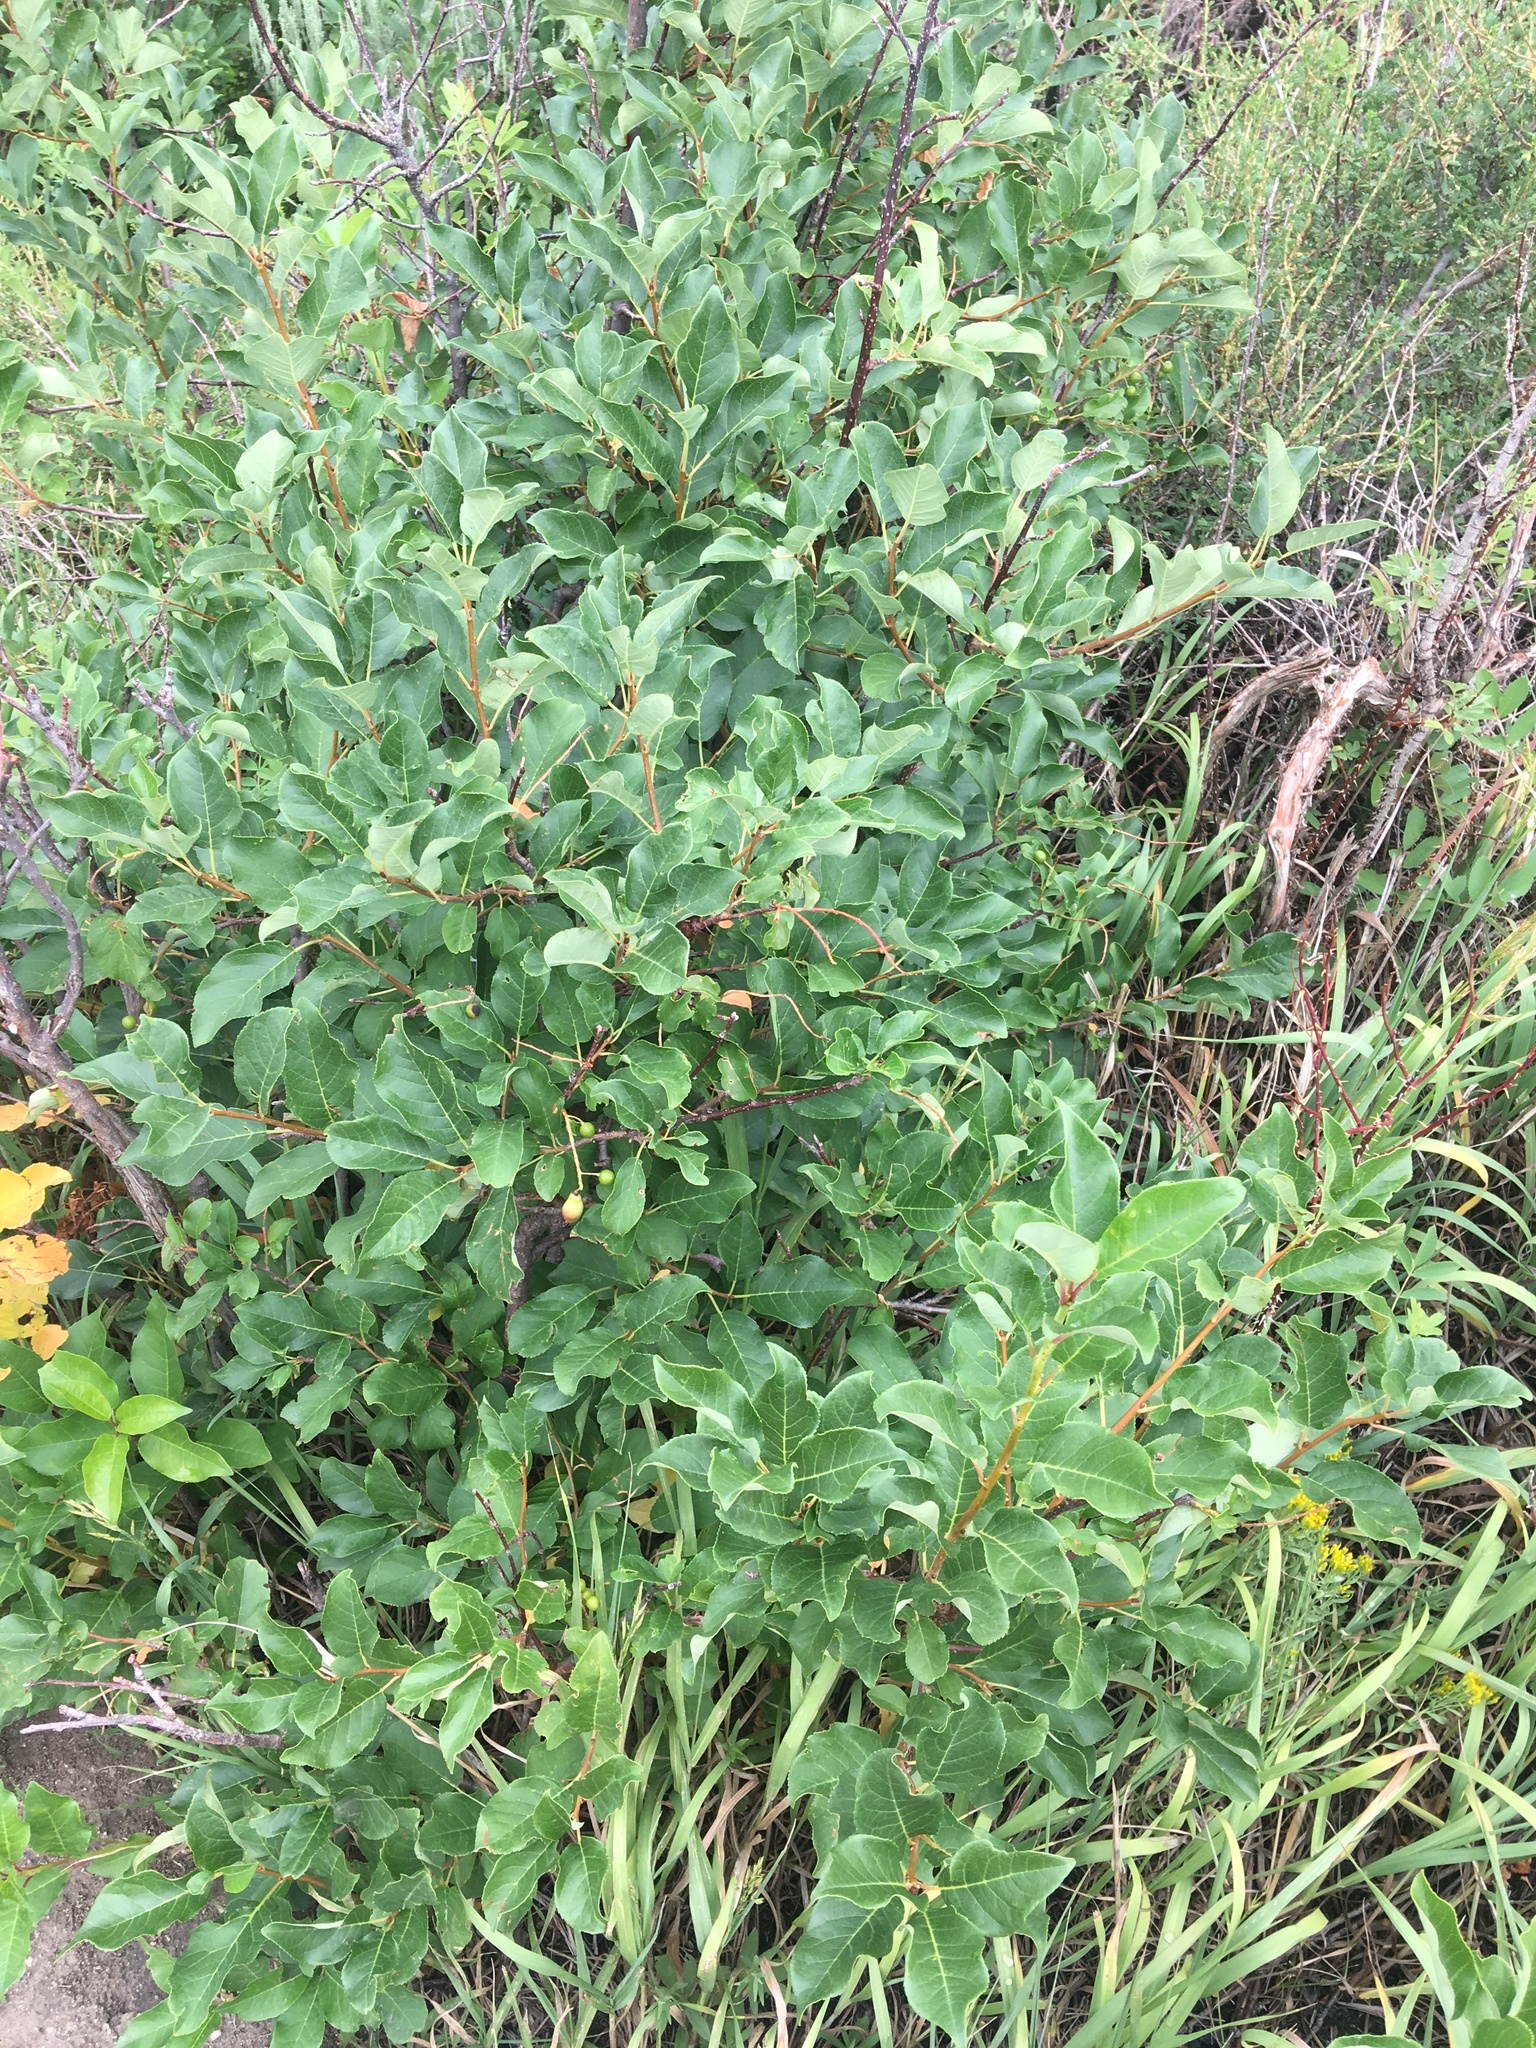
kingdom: Plantae
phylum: Tracheophyta
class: Magnoliopsida
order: Rosales
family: Rosaceae
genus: Prunus
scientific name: Prunus virginiana
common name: Chokecherry
